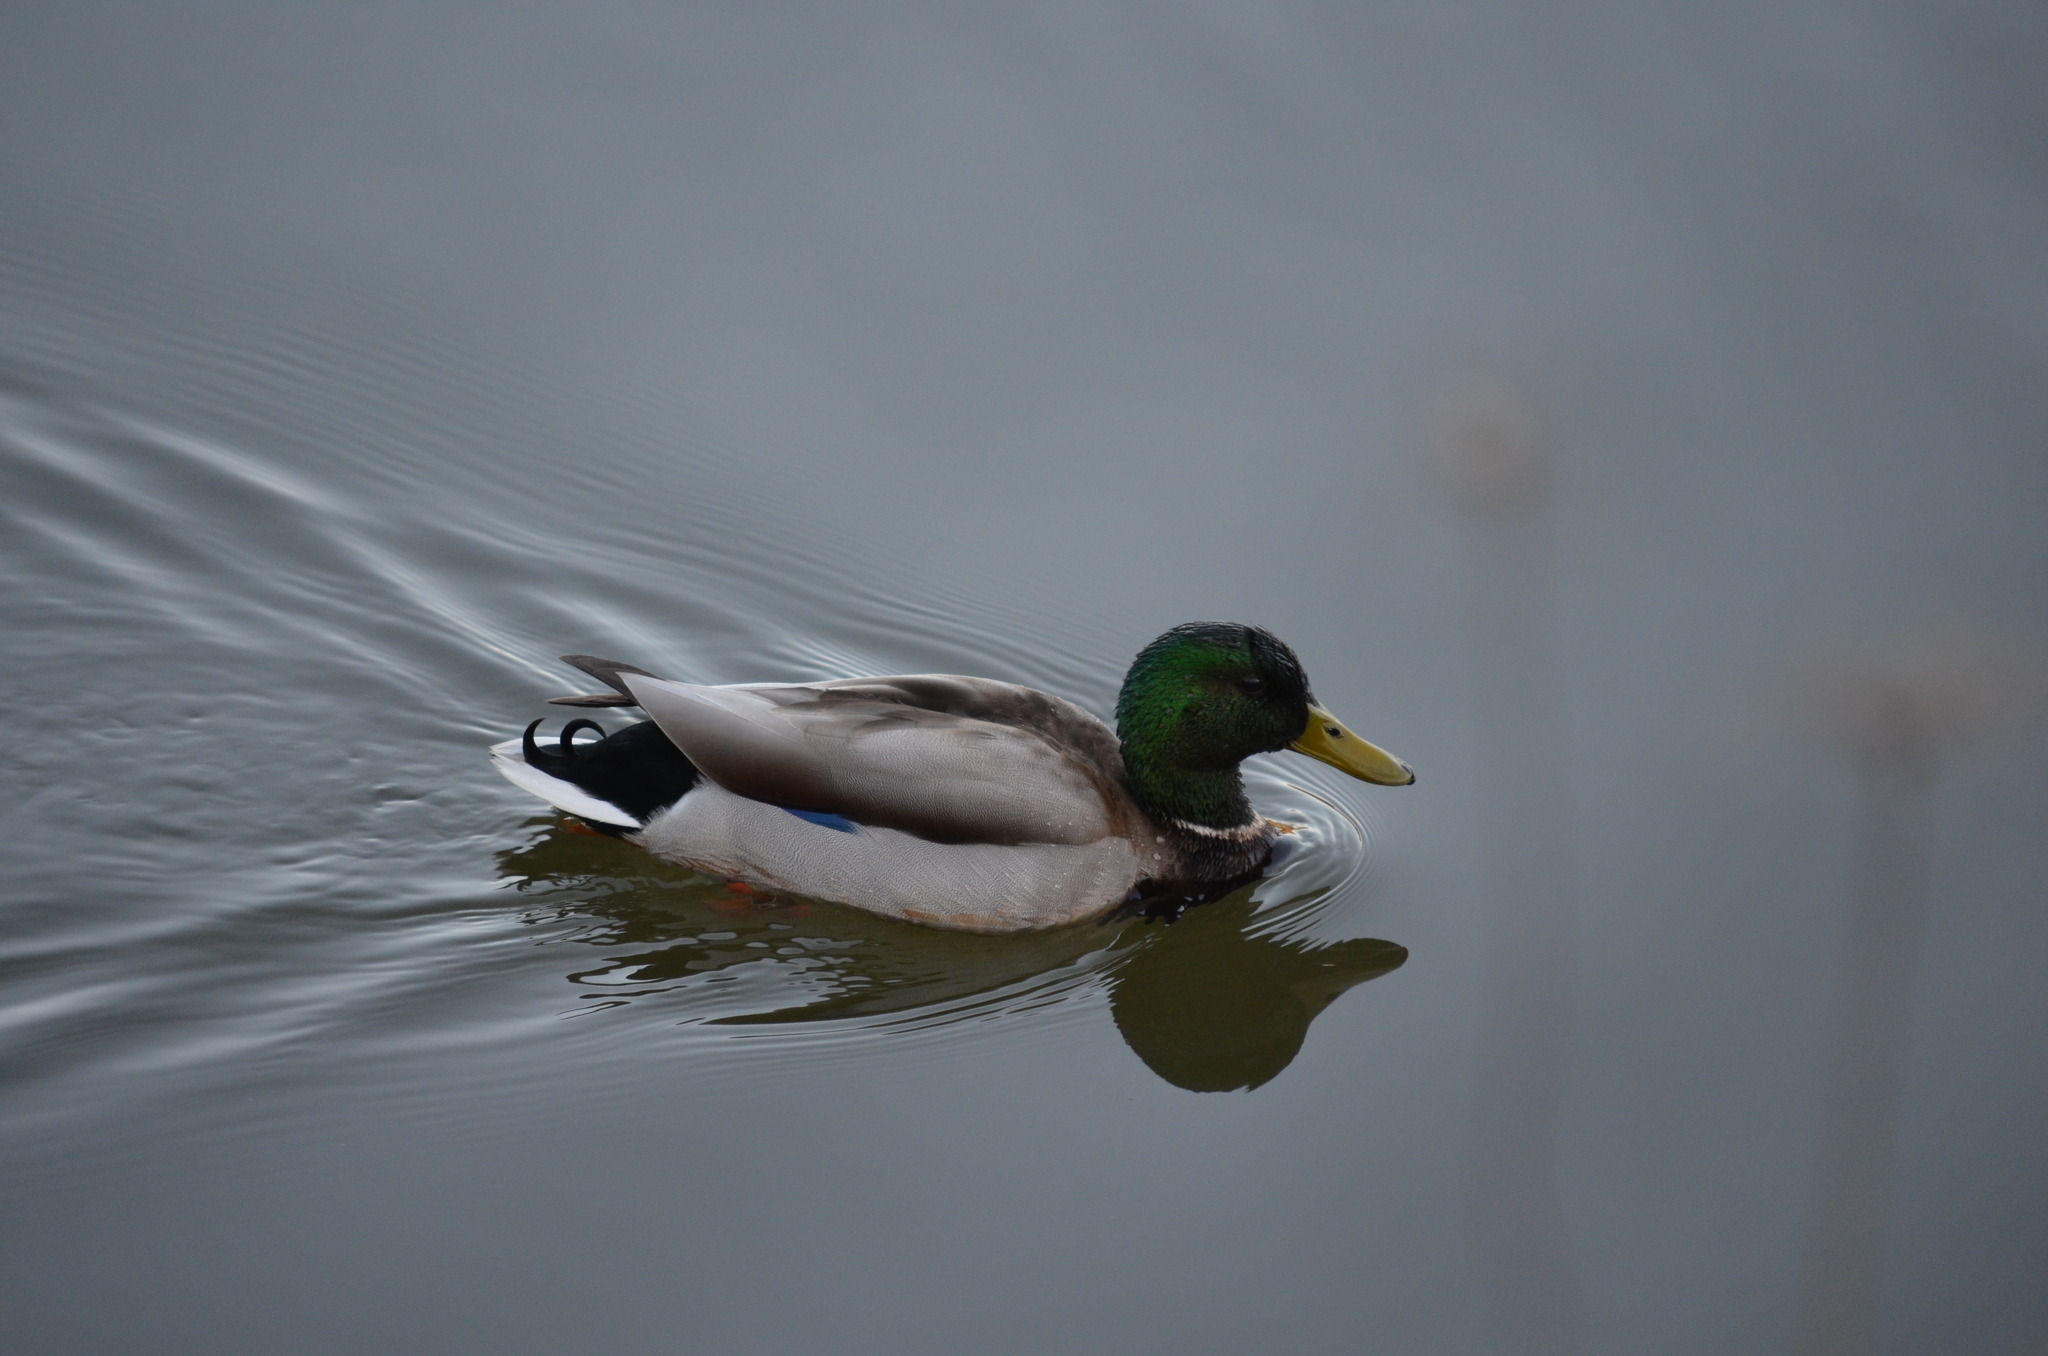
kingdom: Animalia
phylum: Chordata
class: Aves
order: Anseriformes
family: Anatidae
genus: Anas
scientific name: Anas platyrhynchos
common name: Mallard
